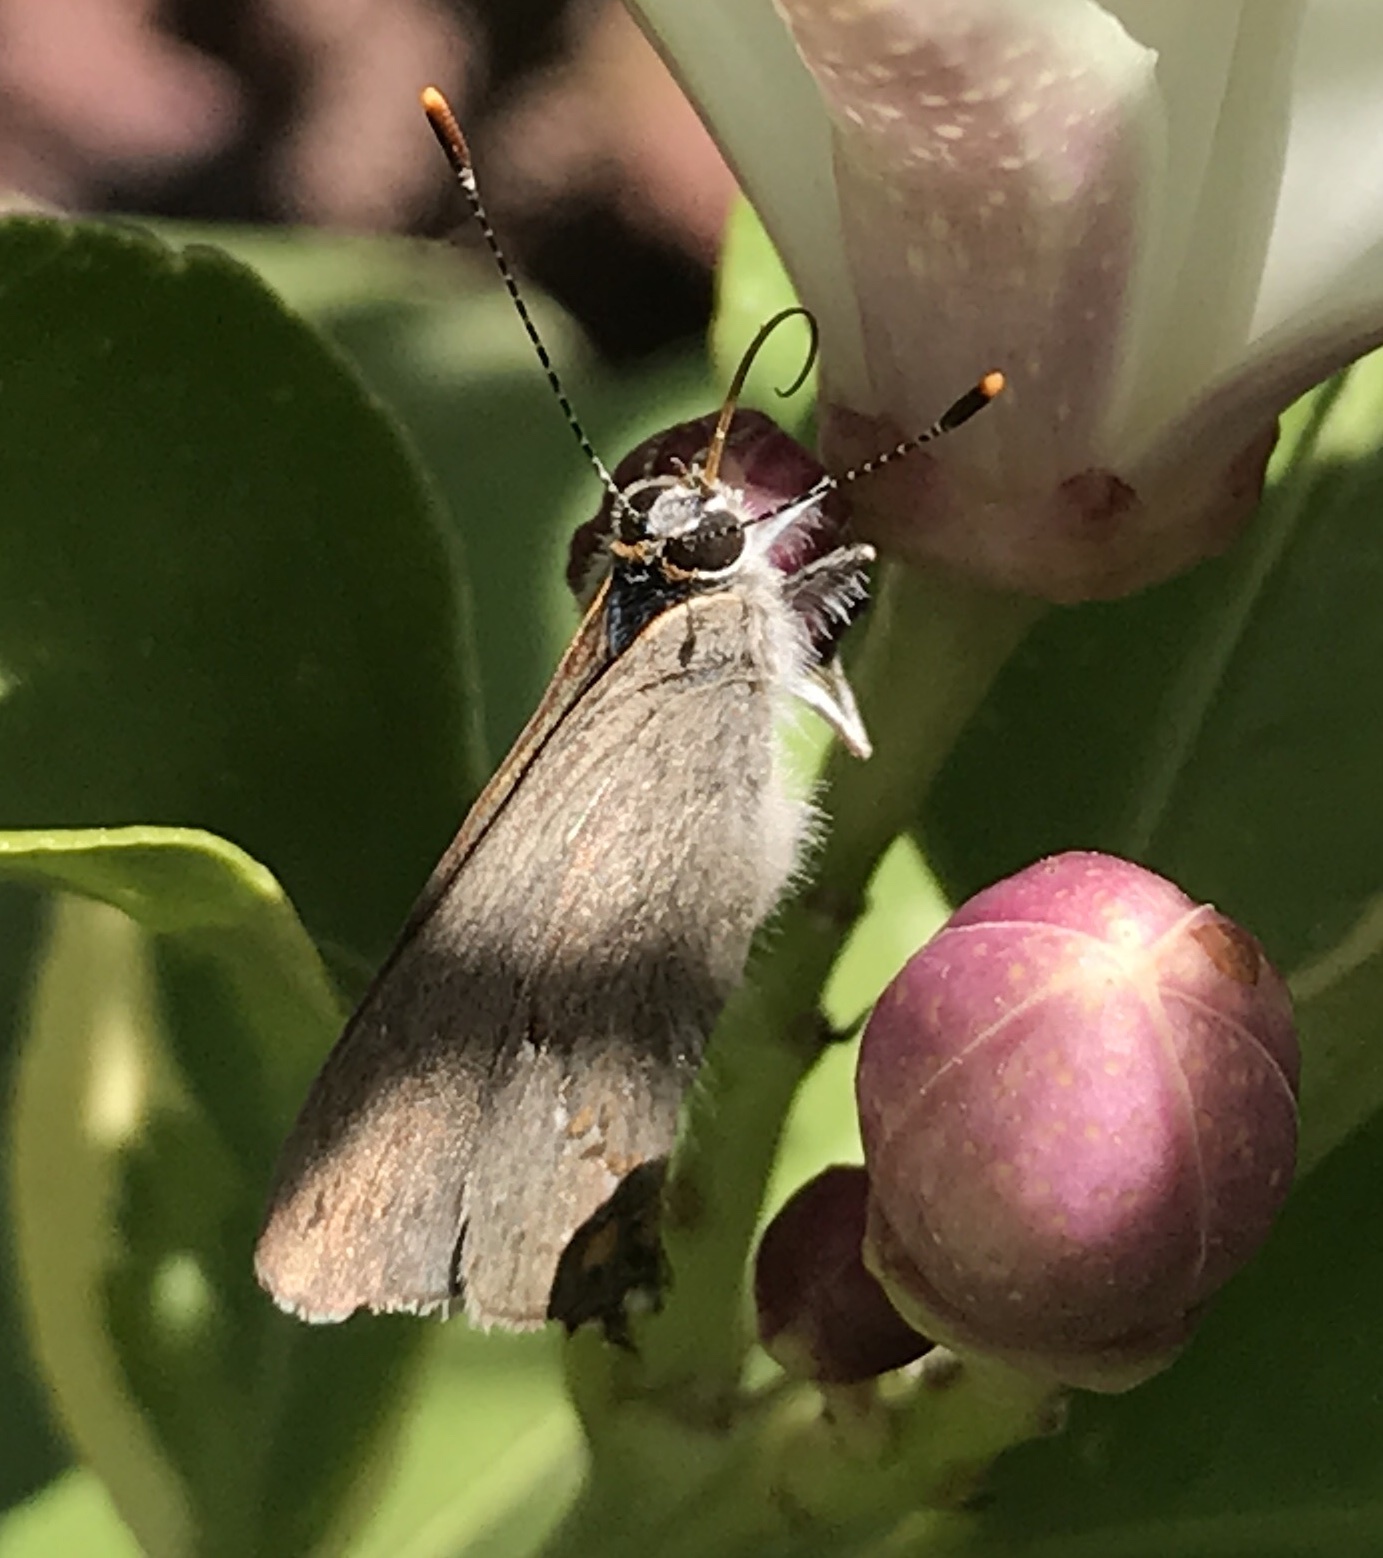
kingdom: Animalia
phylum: Arthropoda
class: Insecta
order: Lepidoptera
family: Lycaenidae
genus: Strymon
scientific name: Strymon melinus
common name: Gray hairstreak
